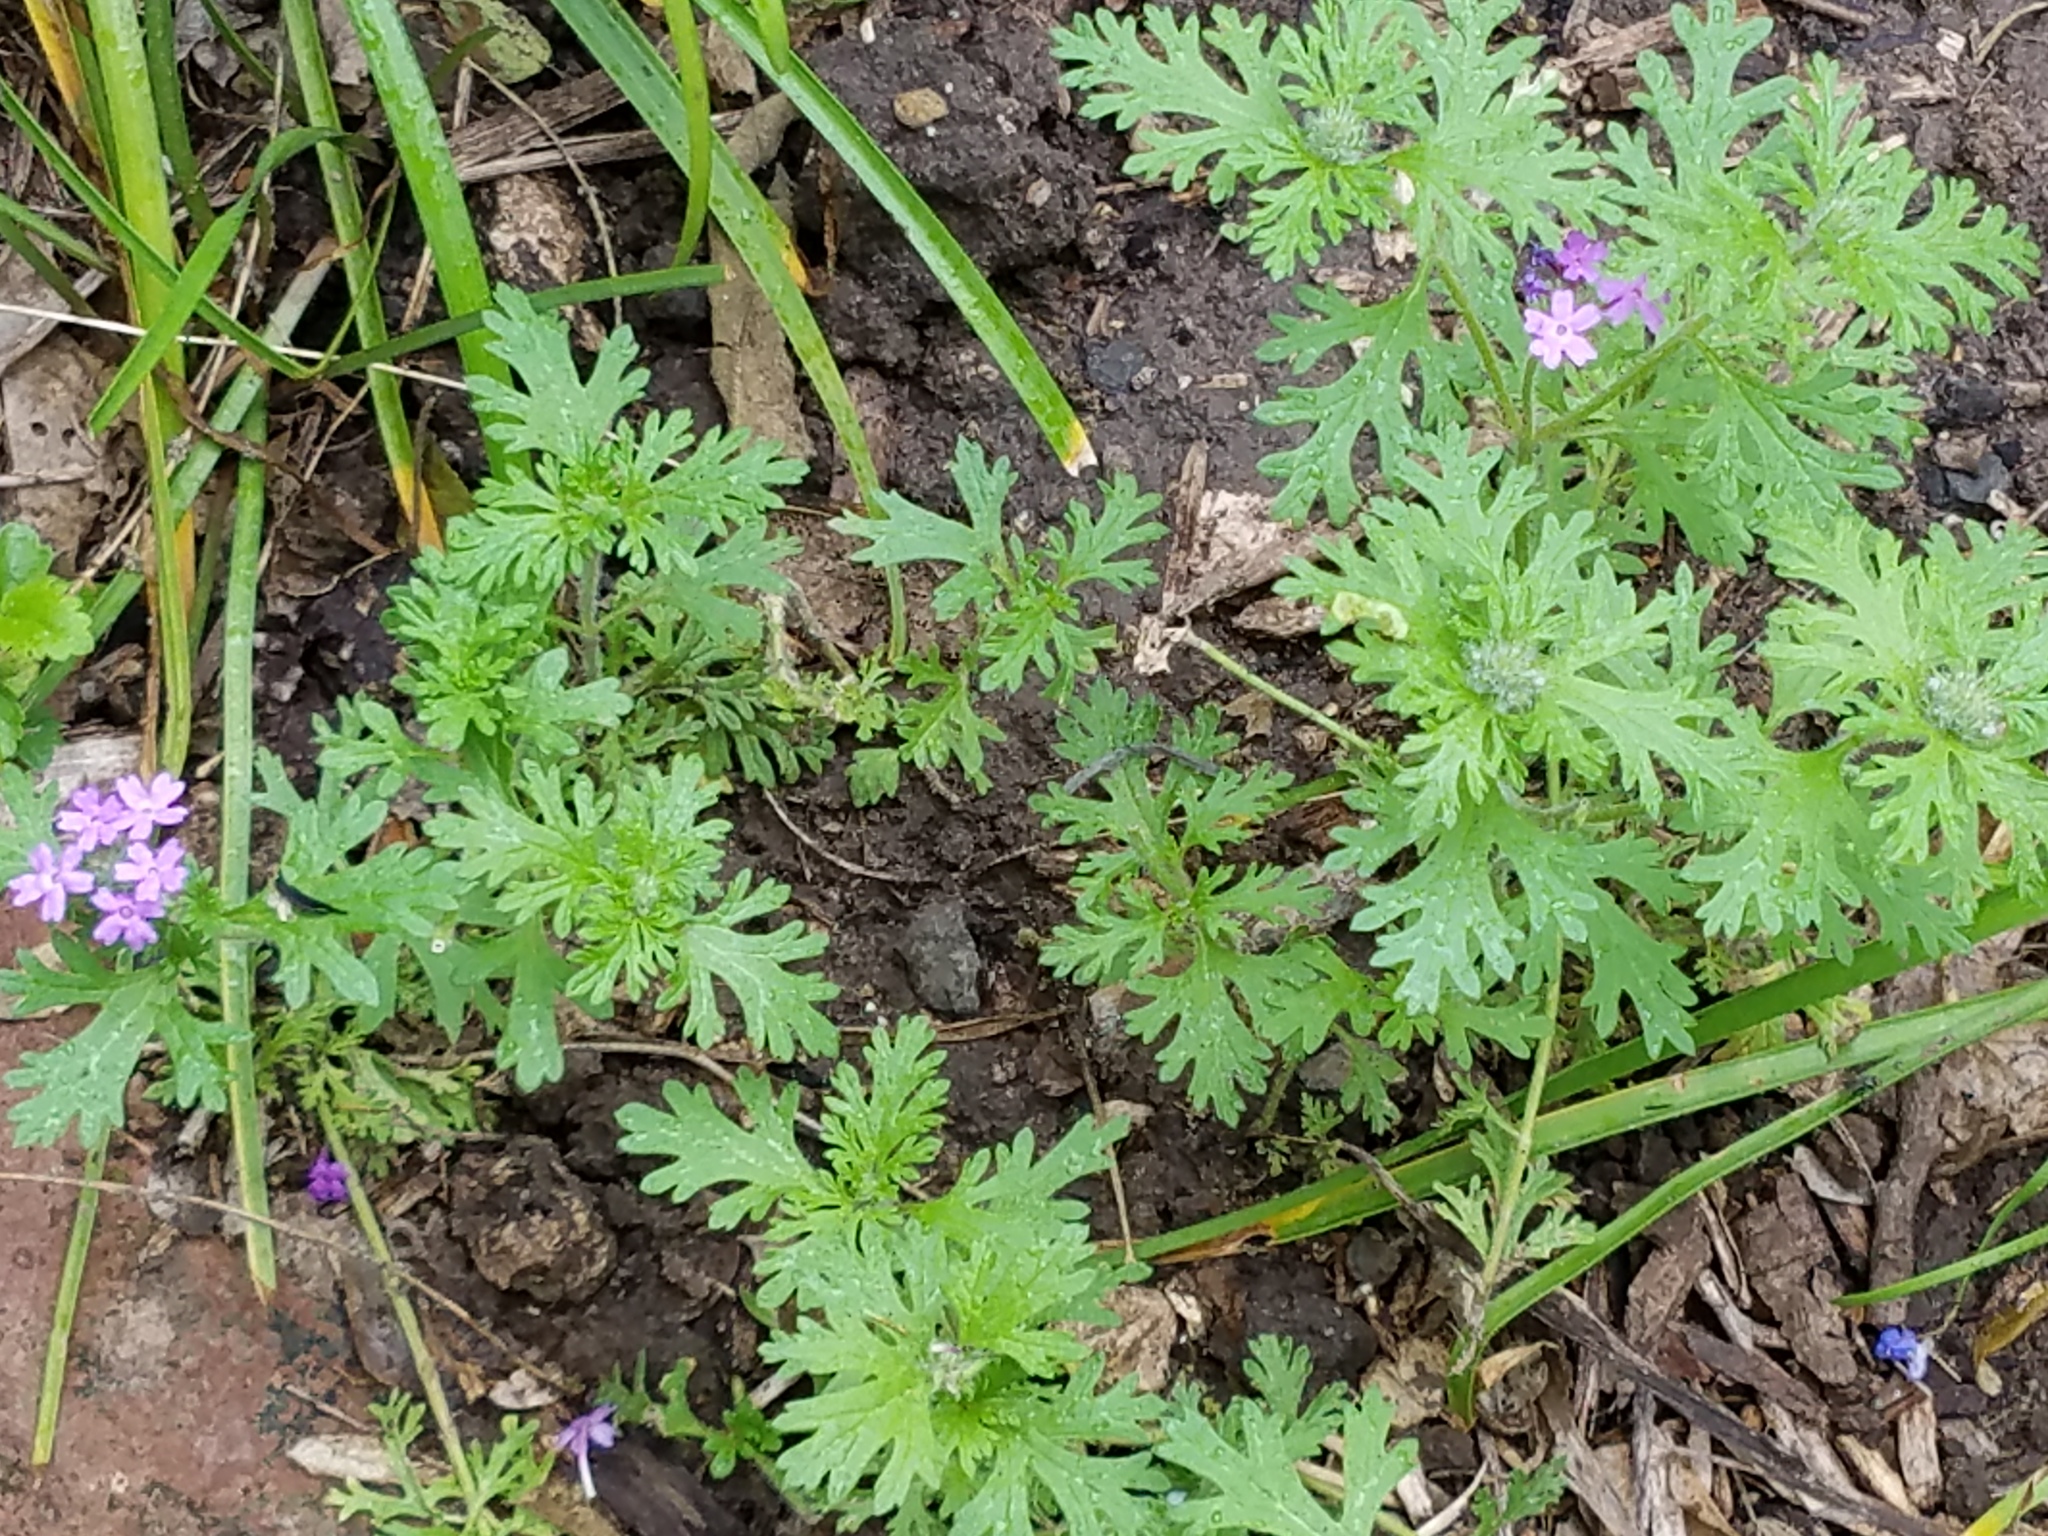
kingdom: Plantae
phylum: Tracheophyta
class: Magnoliopsida
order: Lamiales
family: Verbenaceae
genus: Verbena
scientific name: Verbena bipinnatifida
